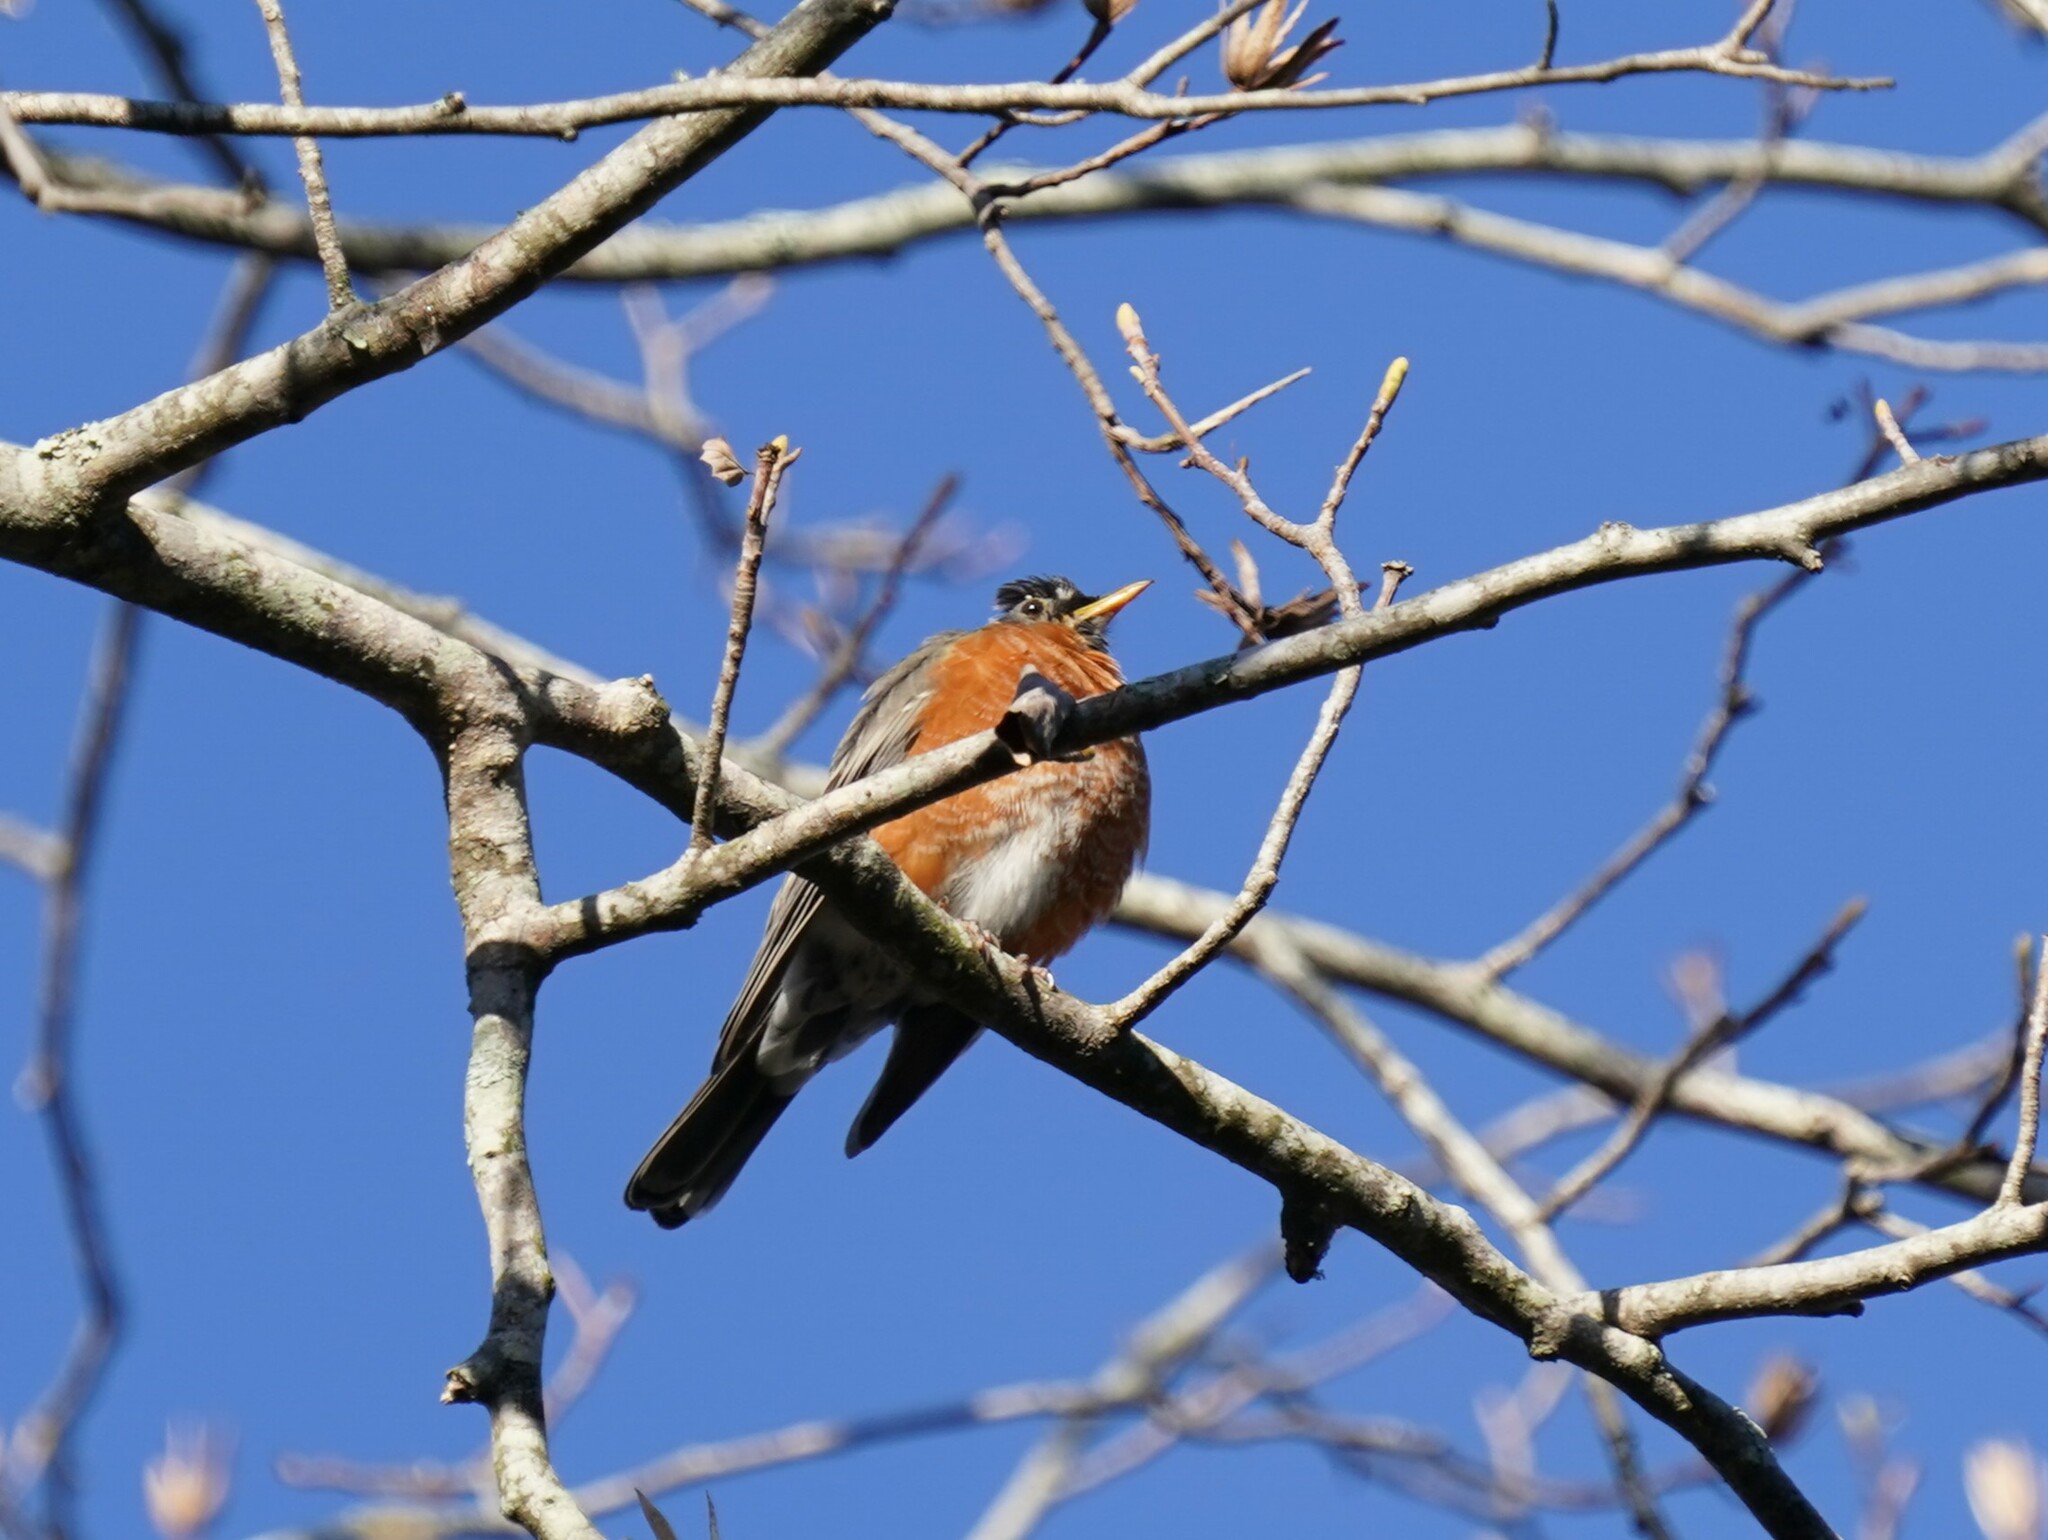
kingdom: Animalia
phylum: Chordata
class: Aves
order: Passeriformes
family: Turdidae
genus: Turdus
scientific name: Turdus migratorius
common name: American robin
